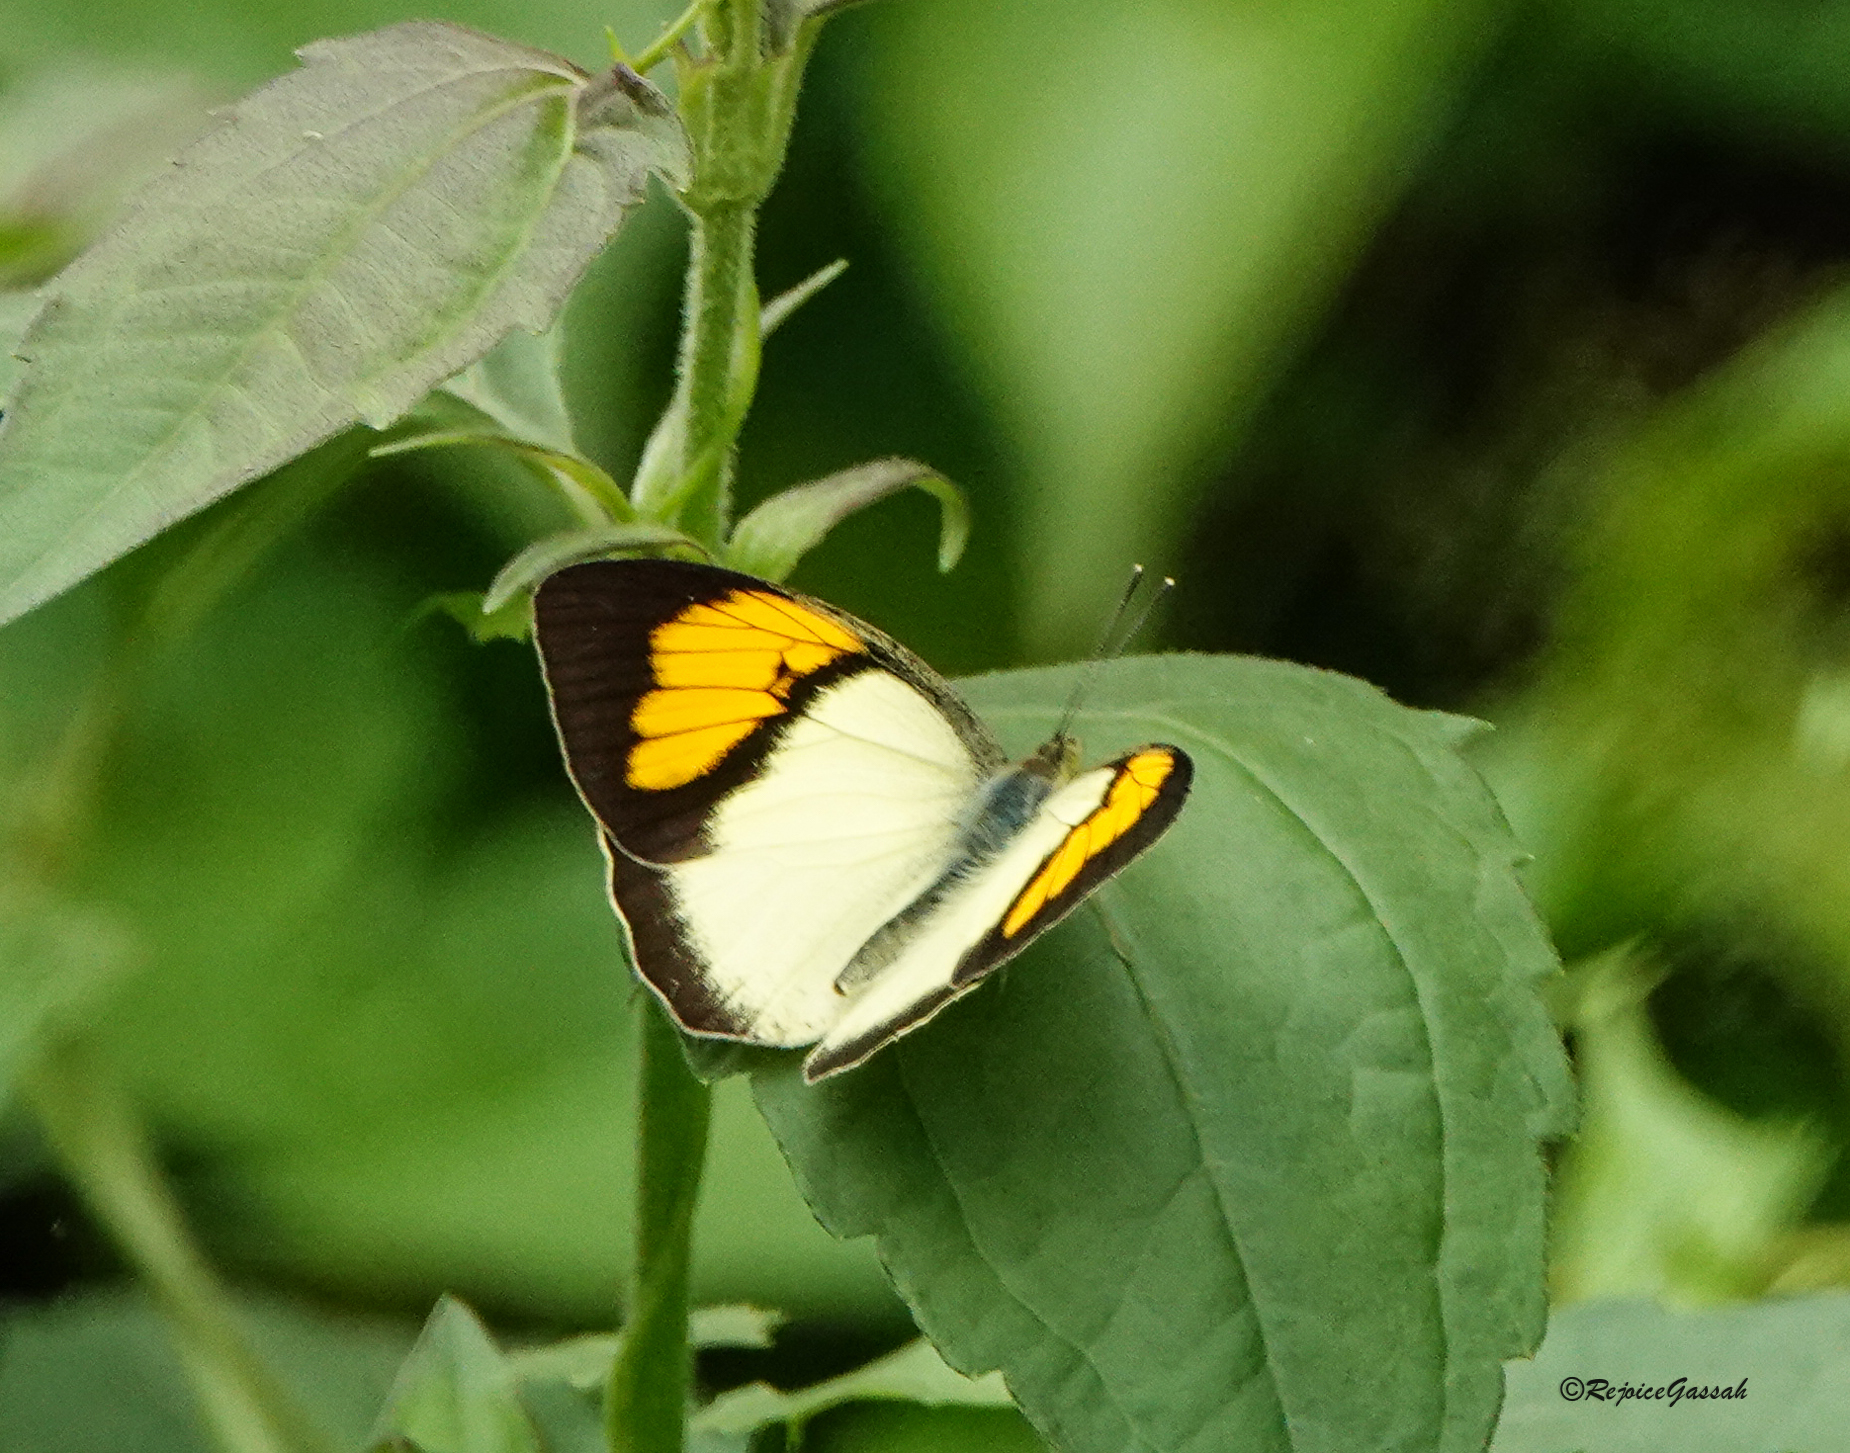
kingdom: Animalia
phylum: Arthropoda
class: Insecta
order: Lepidoptera
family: Pieridae
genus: Ixias
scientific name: Ixias pyrene
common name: Yellow orange tip
